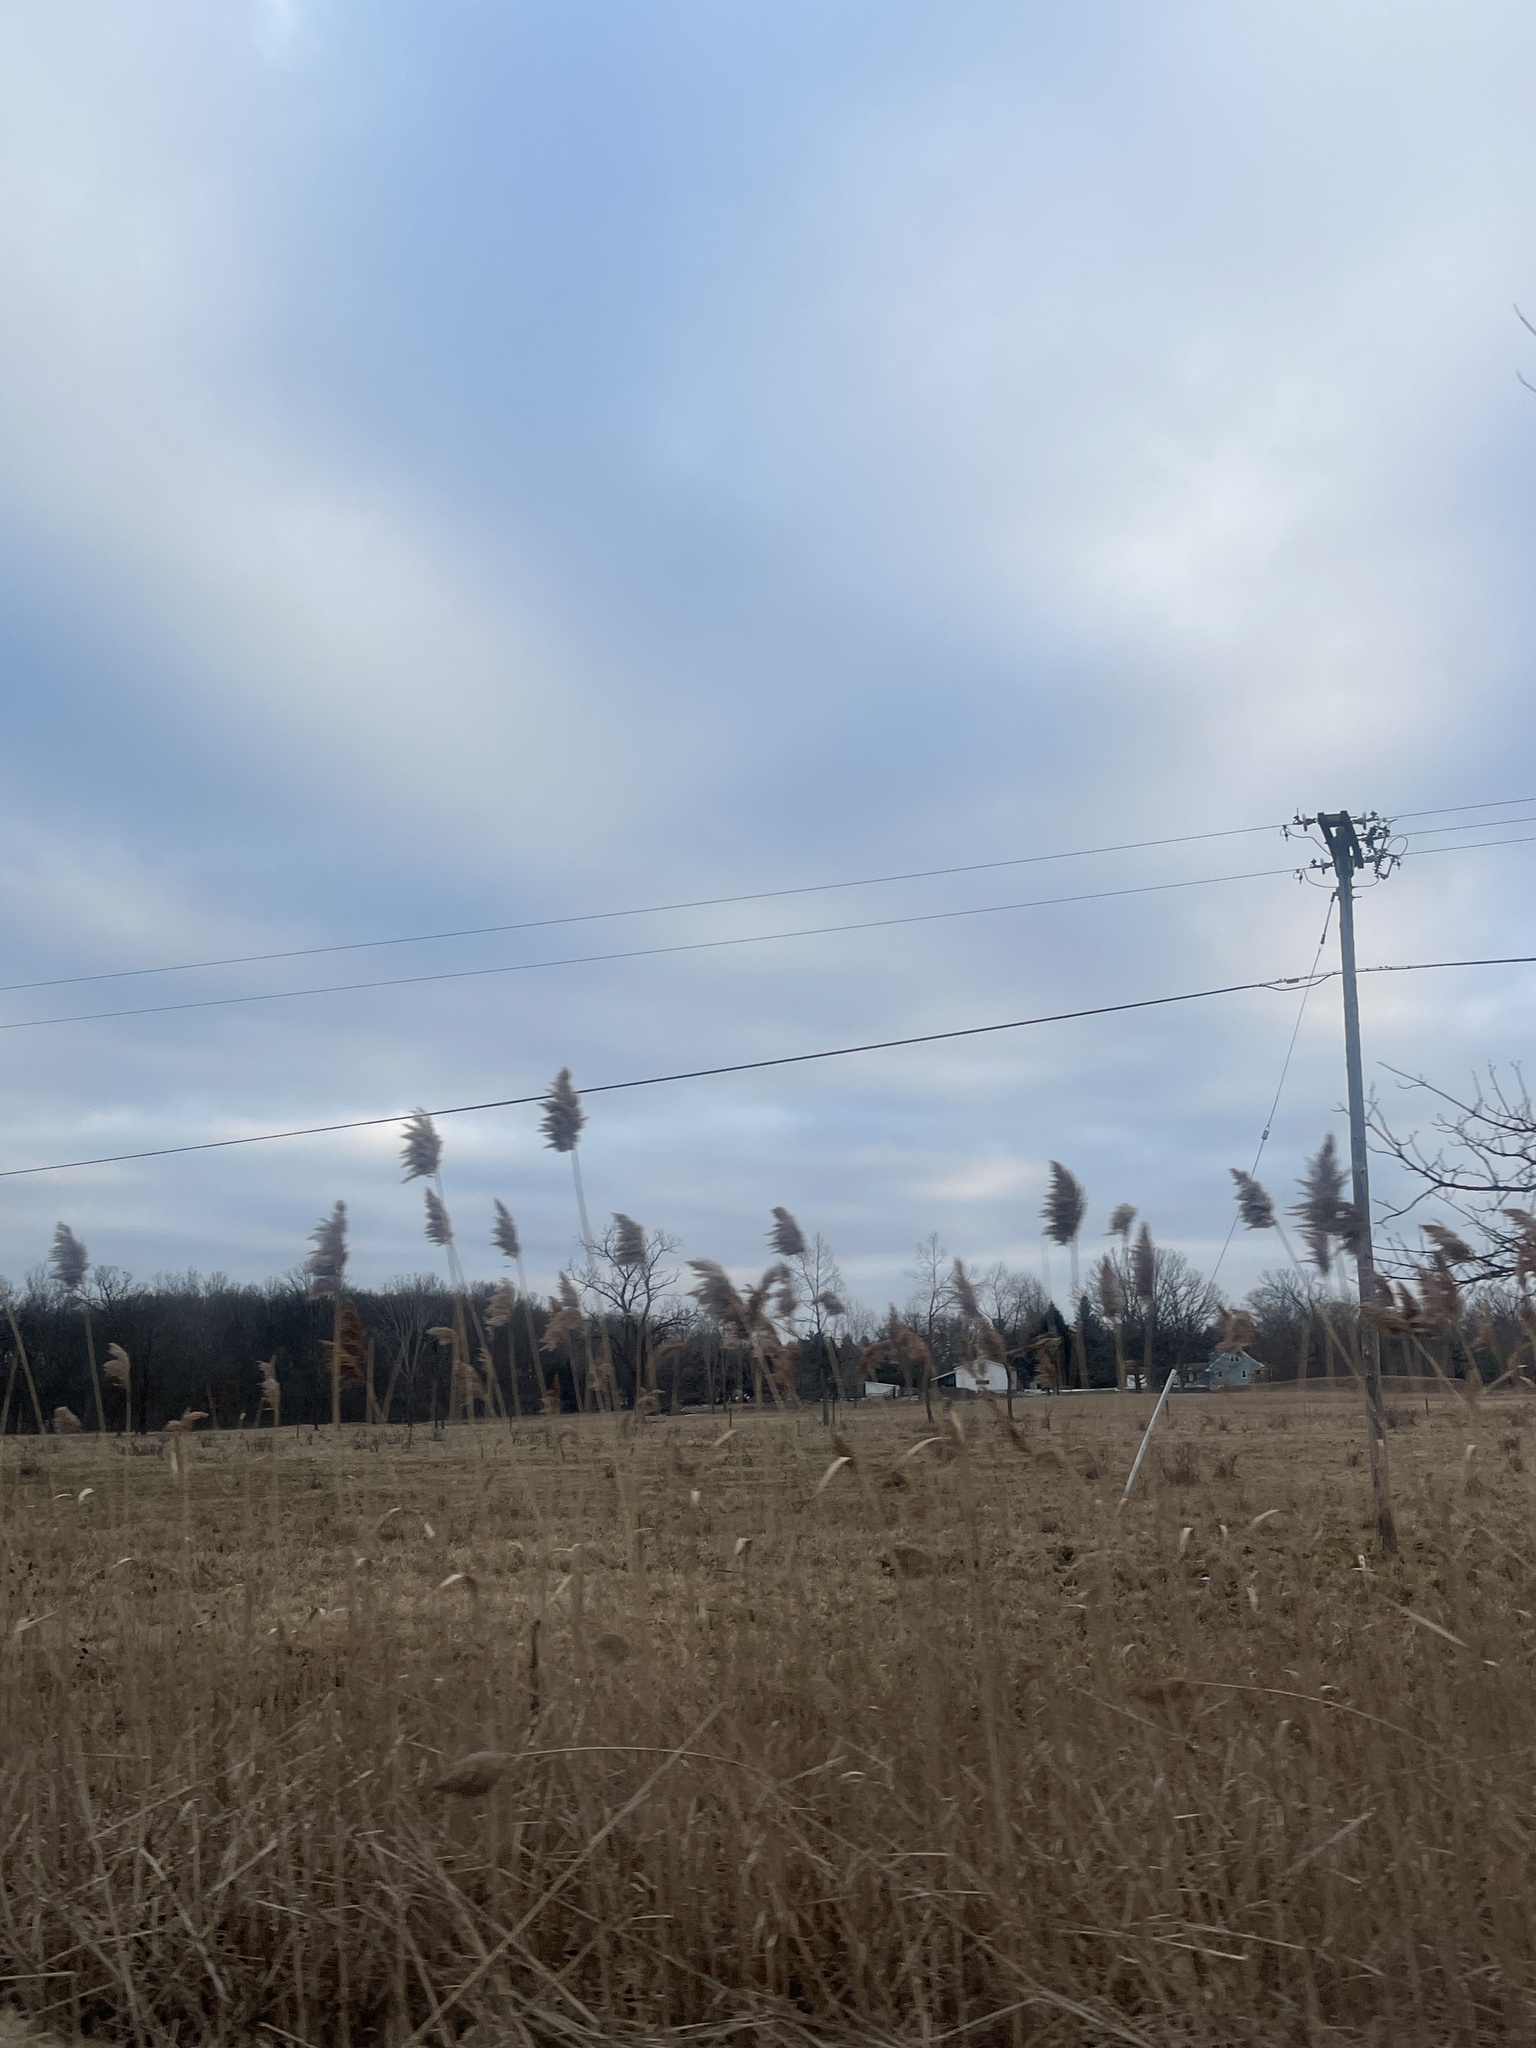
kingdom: Plantae
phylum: Tracheophyta
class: Liliopsida
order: Poales
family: Poaceae
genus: Phragmites
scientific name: Phragmites australis
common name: Common reed
